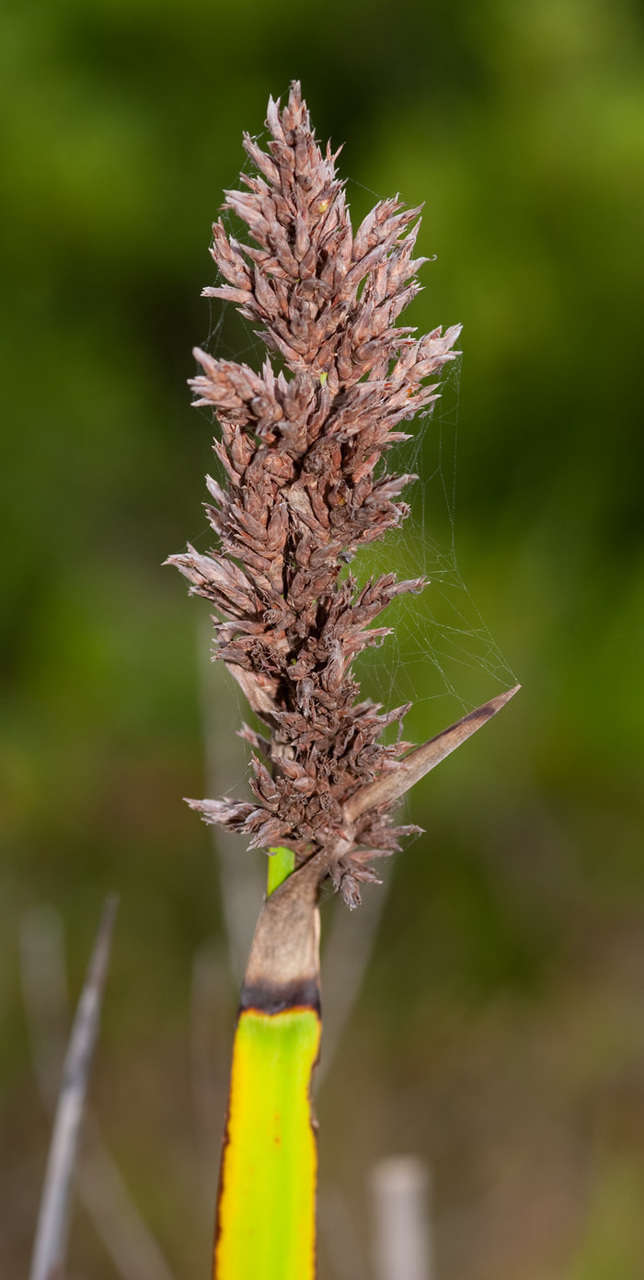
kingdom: Plantae
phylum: Tracheophyta
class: Liliopsida
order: Poales
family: Cyperaceae
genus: Lepidosperma
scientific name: Lepidosperma gladiatum
